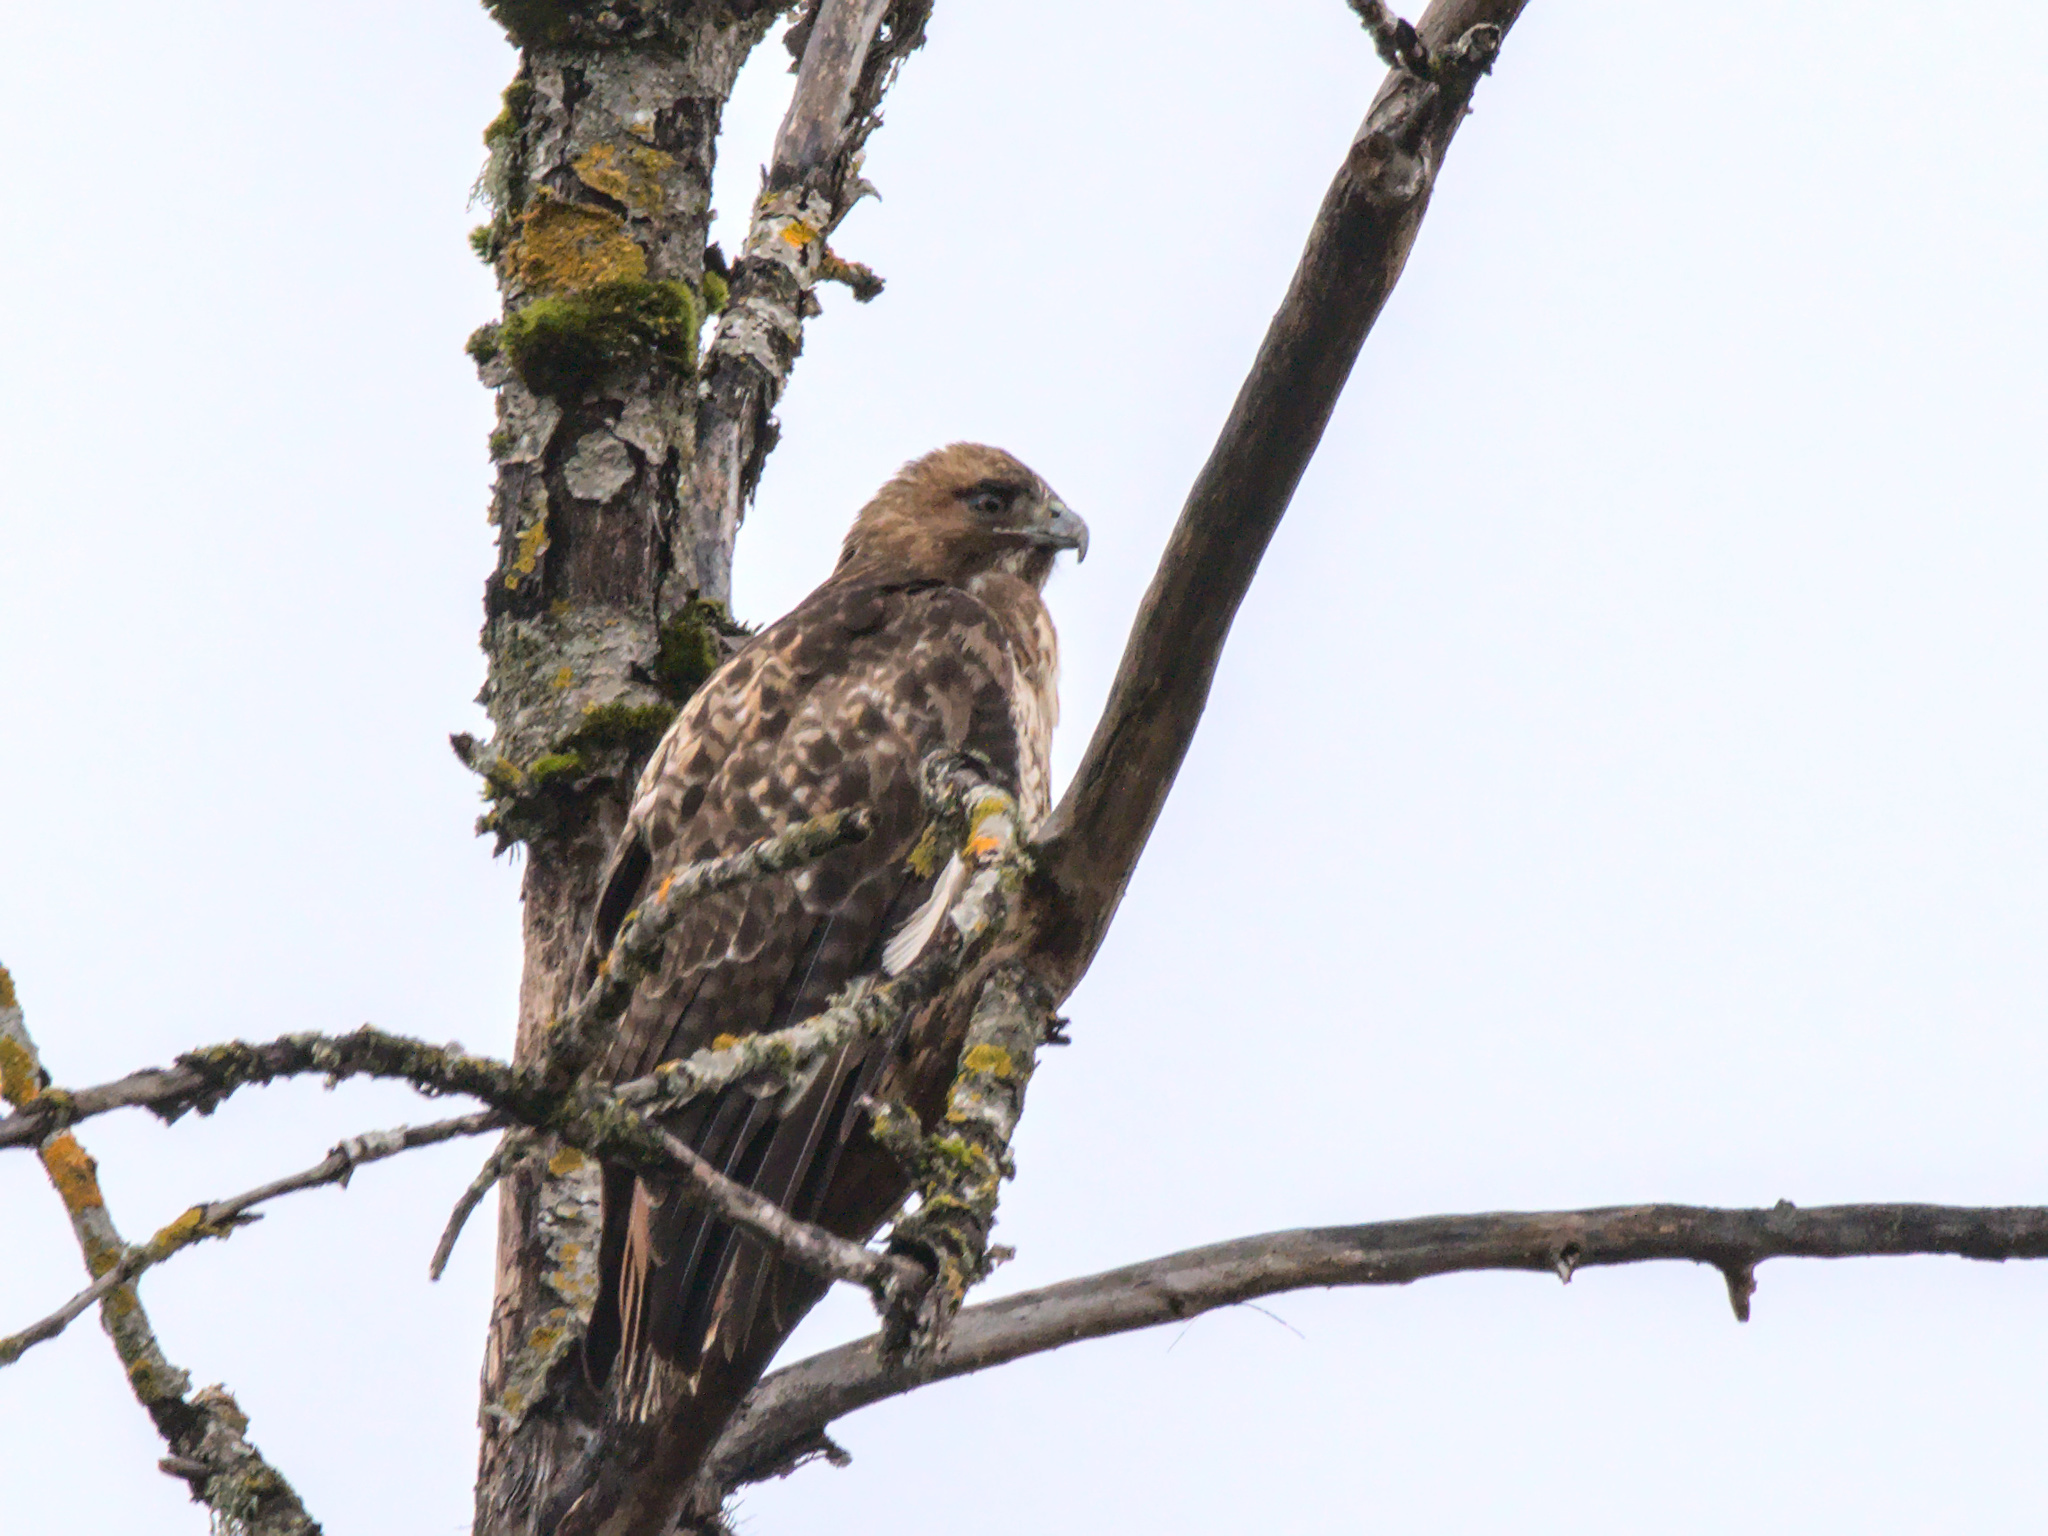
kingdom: Animalia
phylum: Chordata
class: Aves
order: Accipitriformes
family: Accipitridae
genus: Buteo
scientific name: Buteo jamaicensis
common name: Red-tailed hawk
